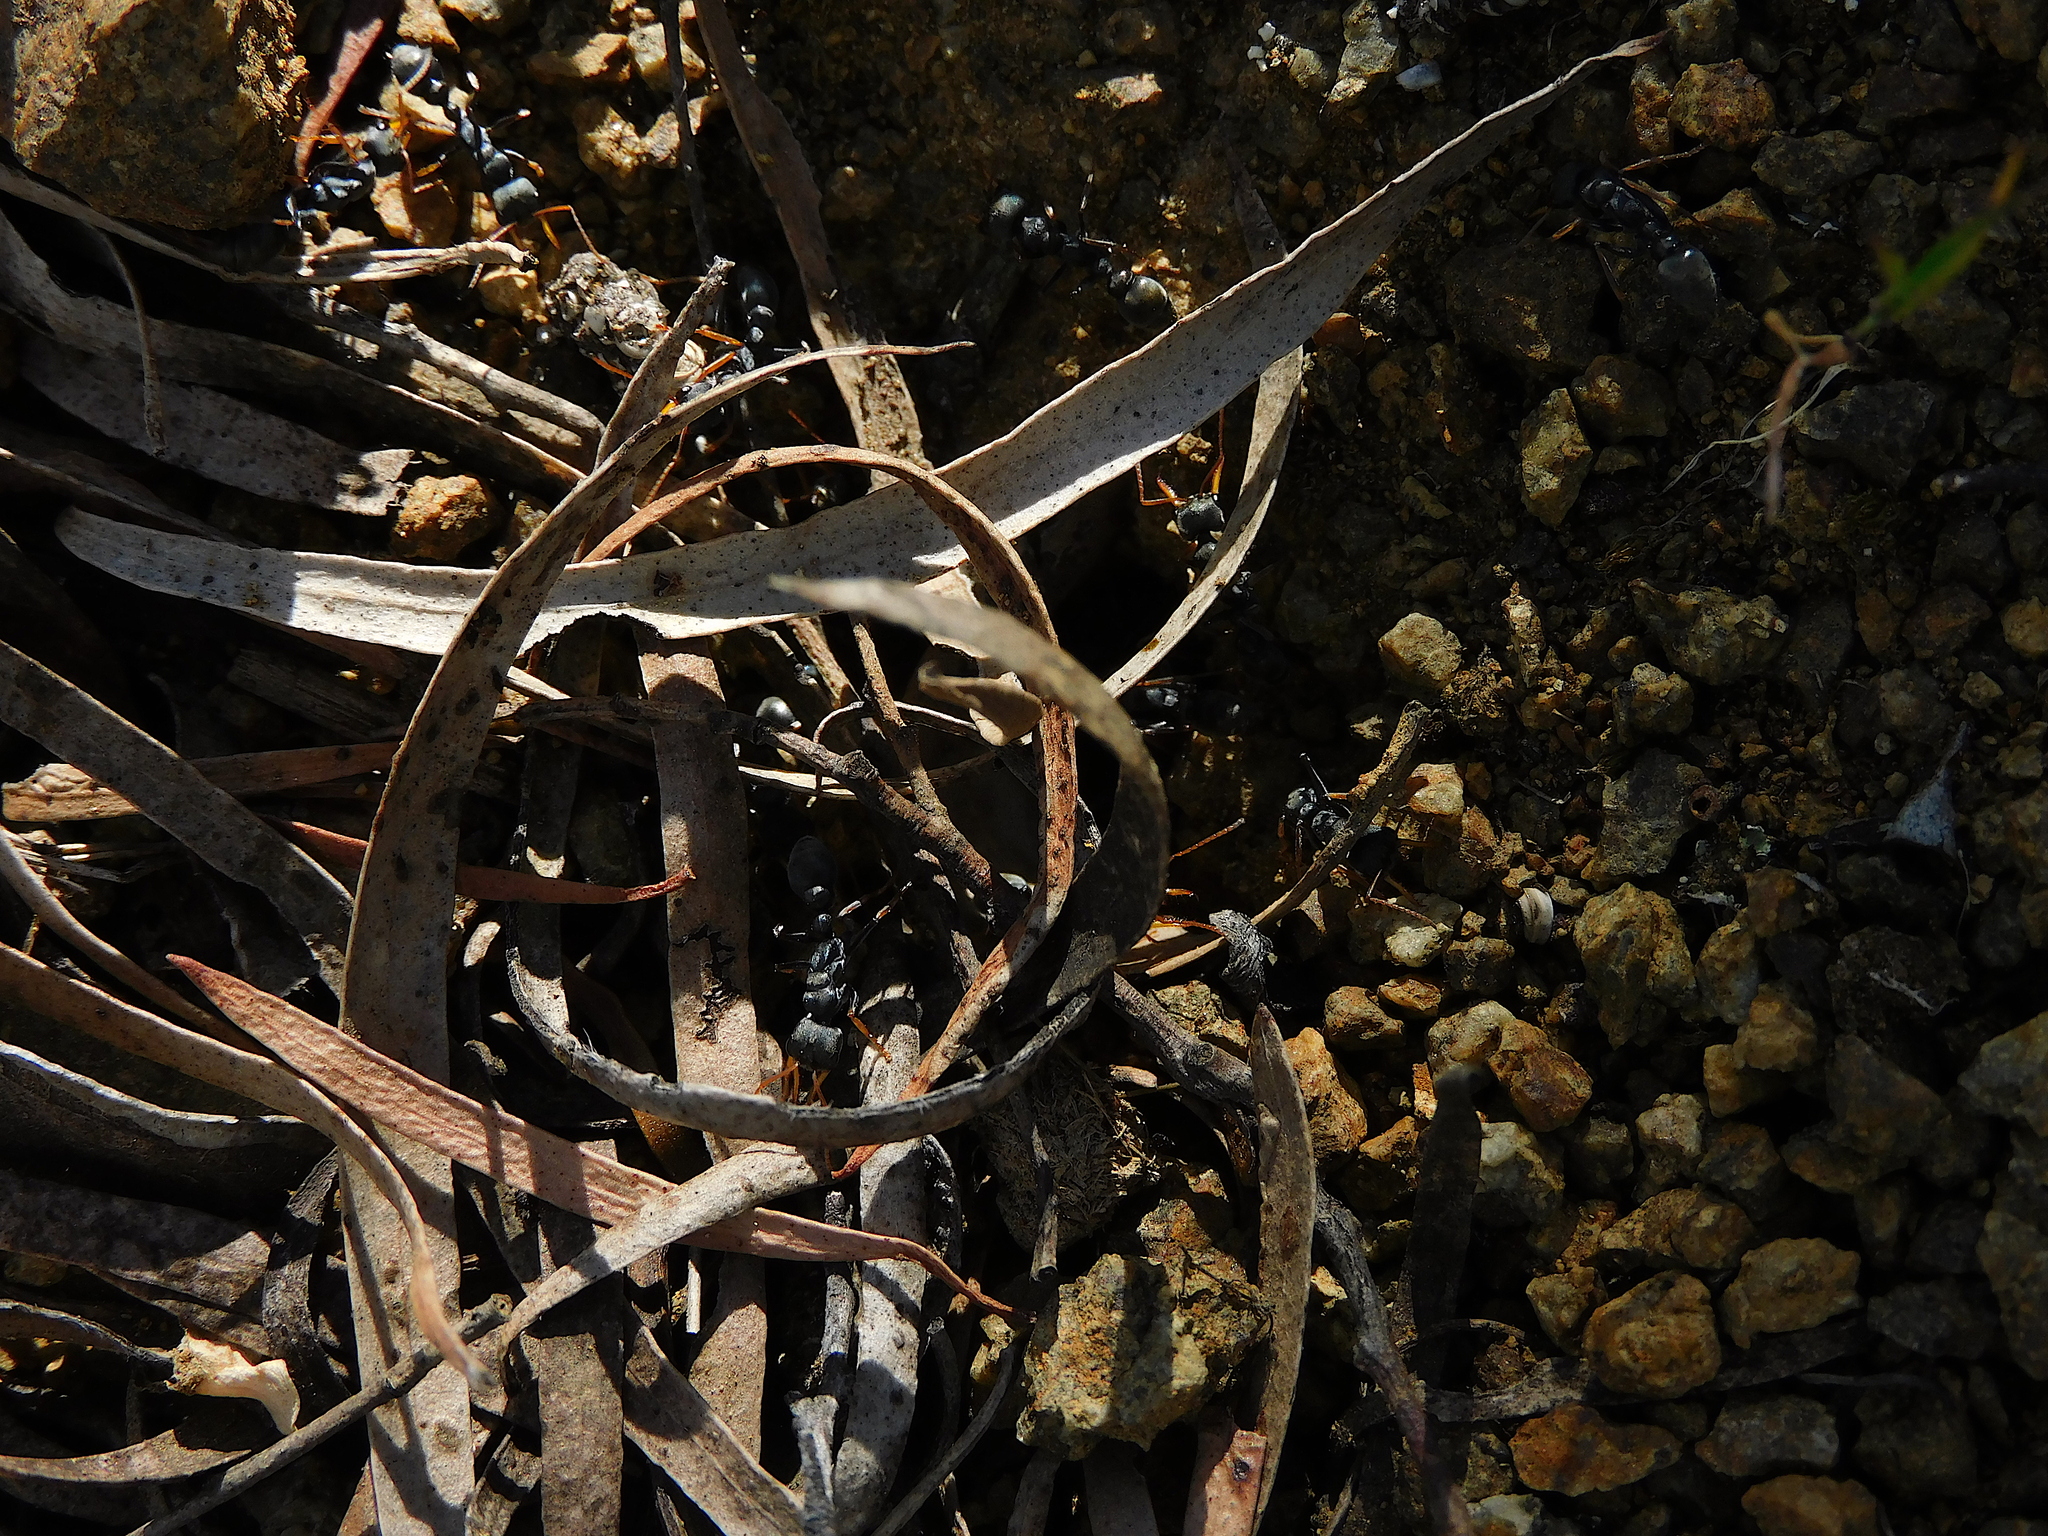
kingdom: Animalia
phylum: Arthropoda
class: Insecta
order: Hymenoptera
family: Formicidae
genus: Myrmecia
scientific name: Myrmecia pilosula
